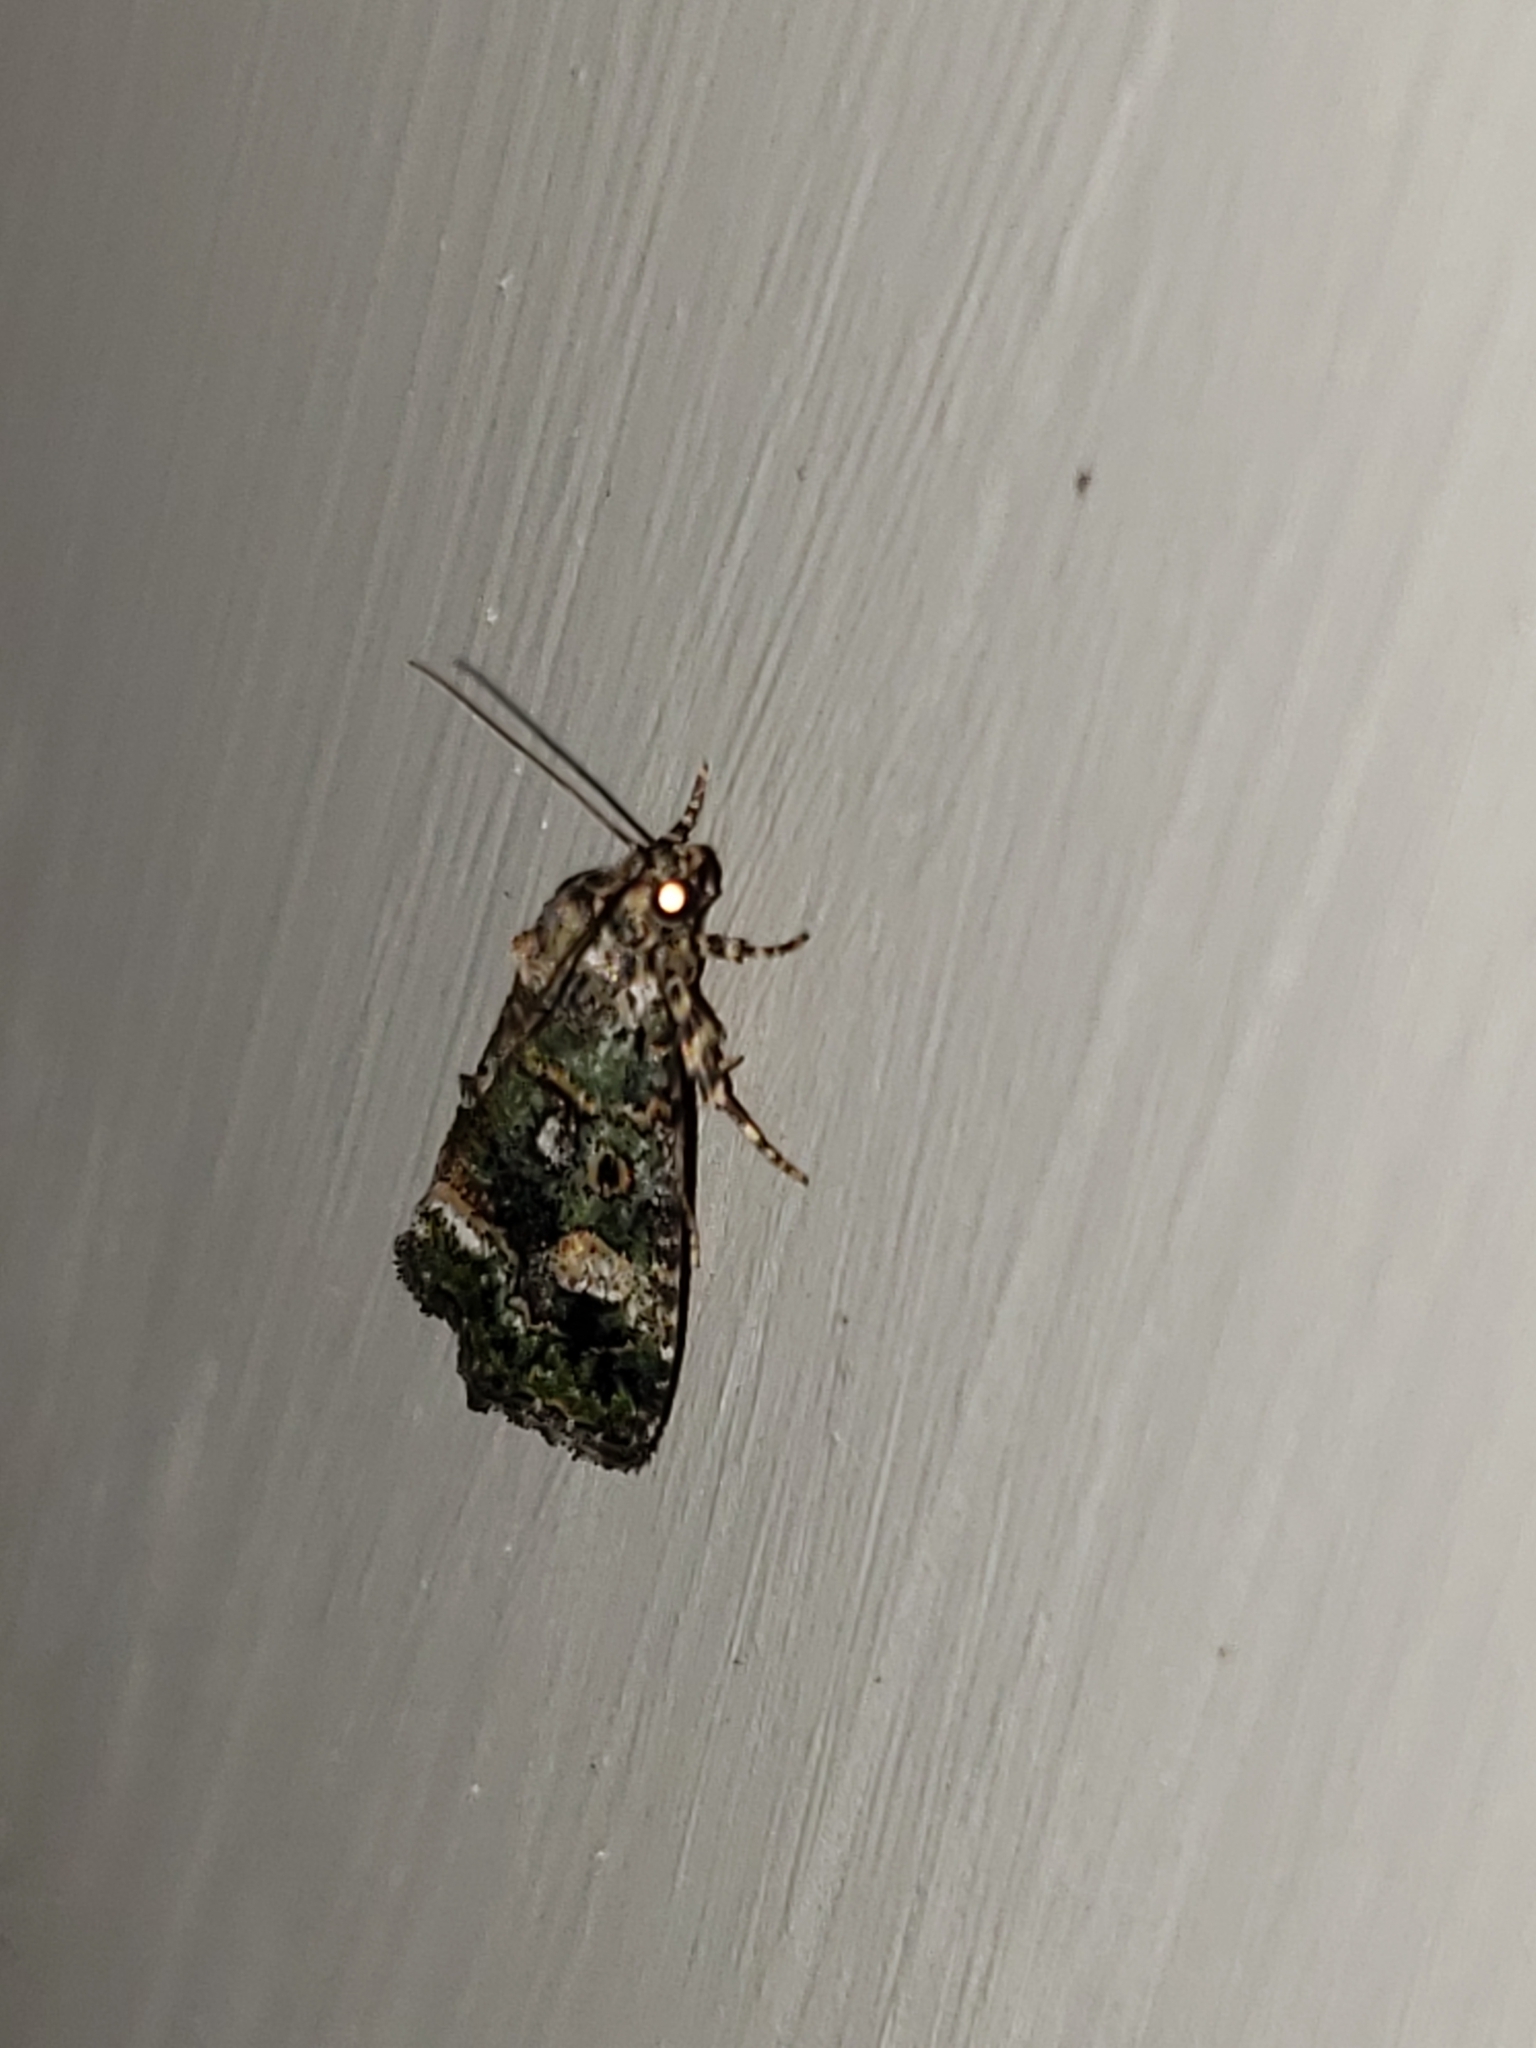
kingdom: Animalia
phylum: Arthropoda
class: Insecta
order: Lepidoptera
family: Noctuidae
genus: Lithacodia
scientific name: Lithacodia musta
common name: Small mossy glyph
